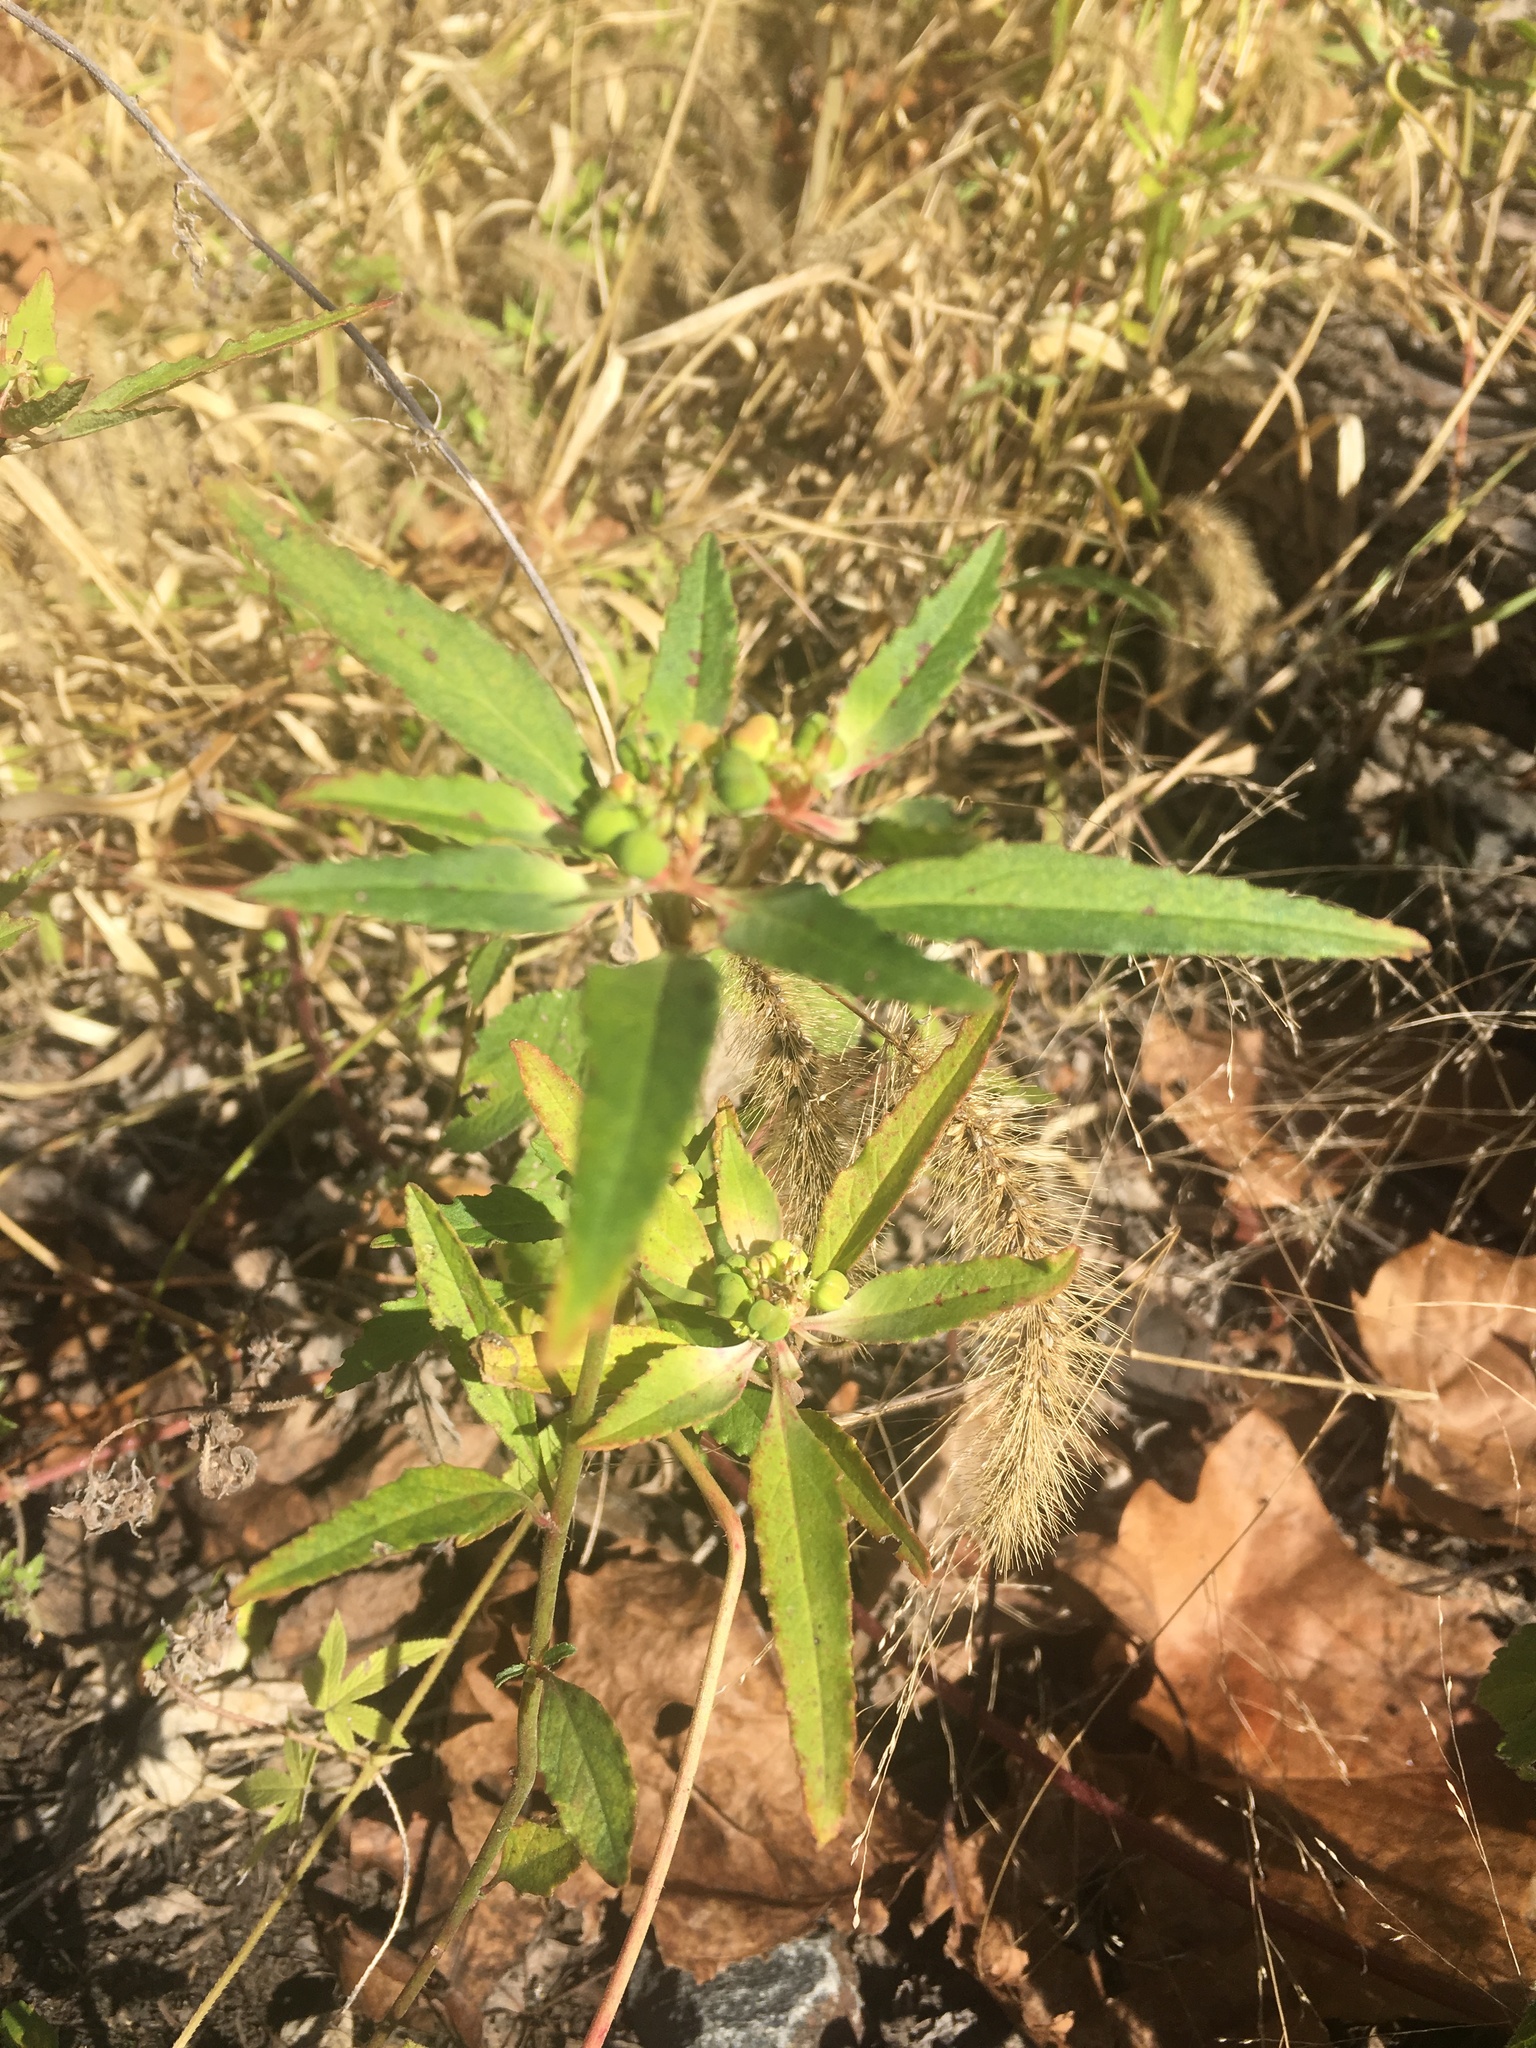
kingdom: Plantae
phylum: Tracheophyta
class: Magnoliopsida
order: Malpighiales
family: Euphorbiaceae
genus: Euphorbia
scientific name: Euphorbia dentata
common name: Dentate spurge
